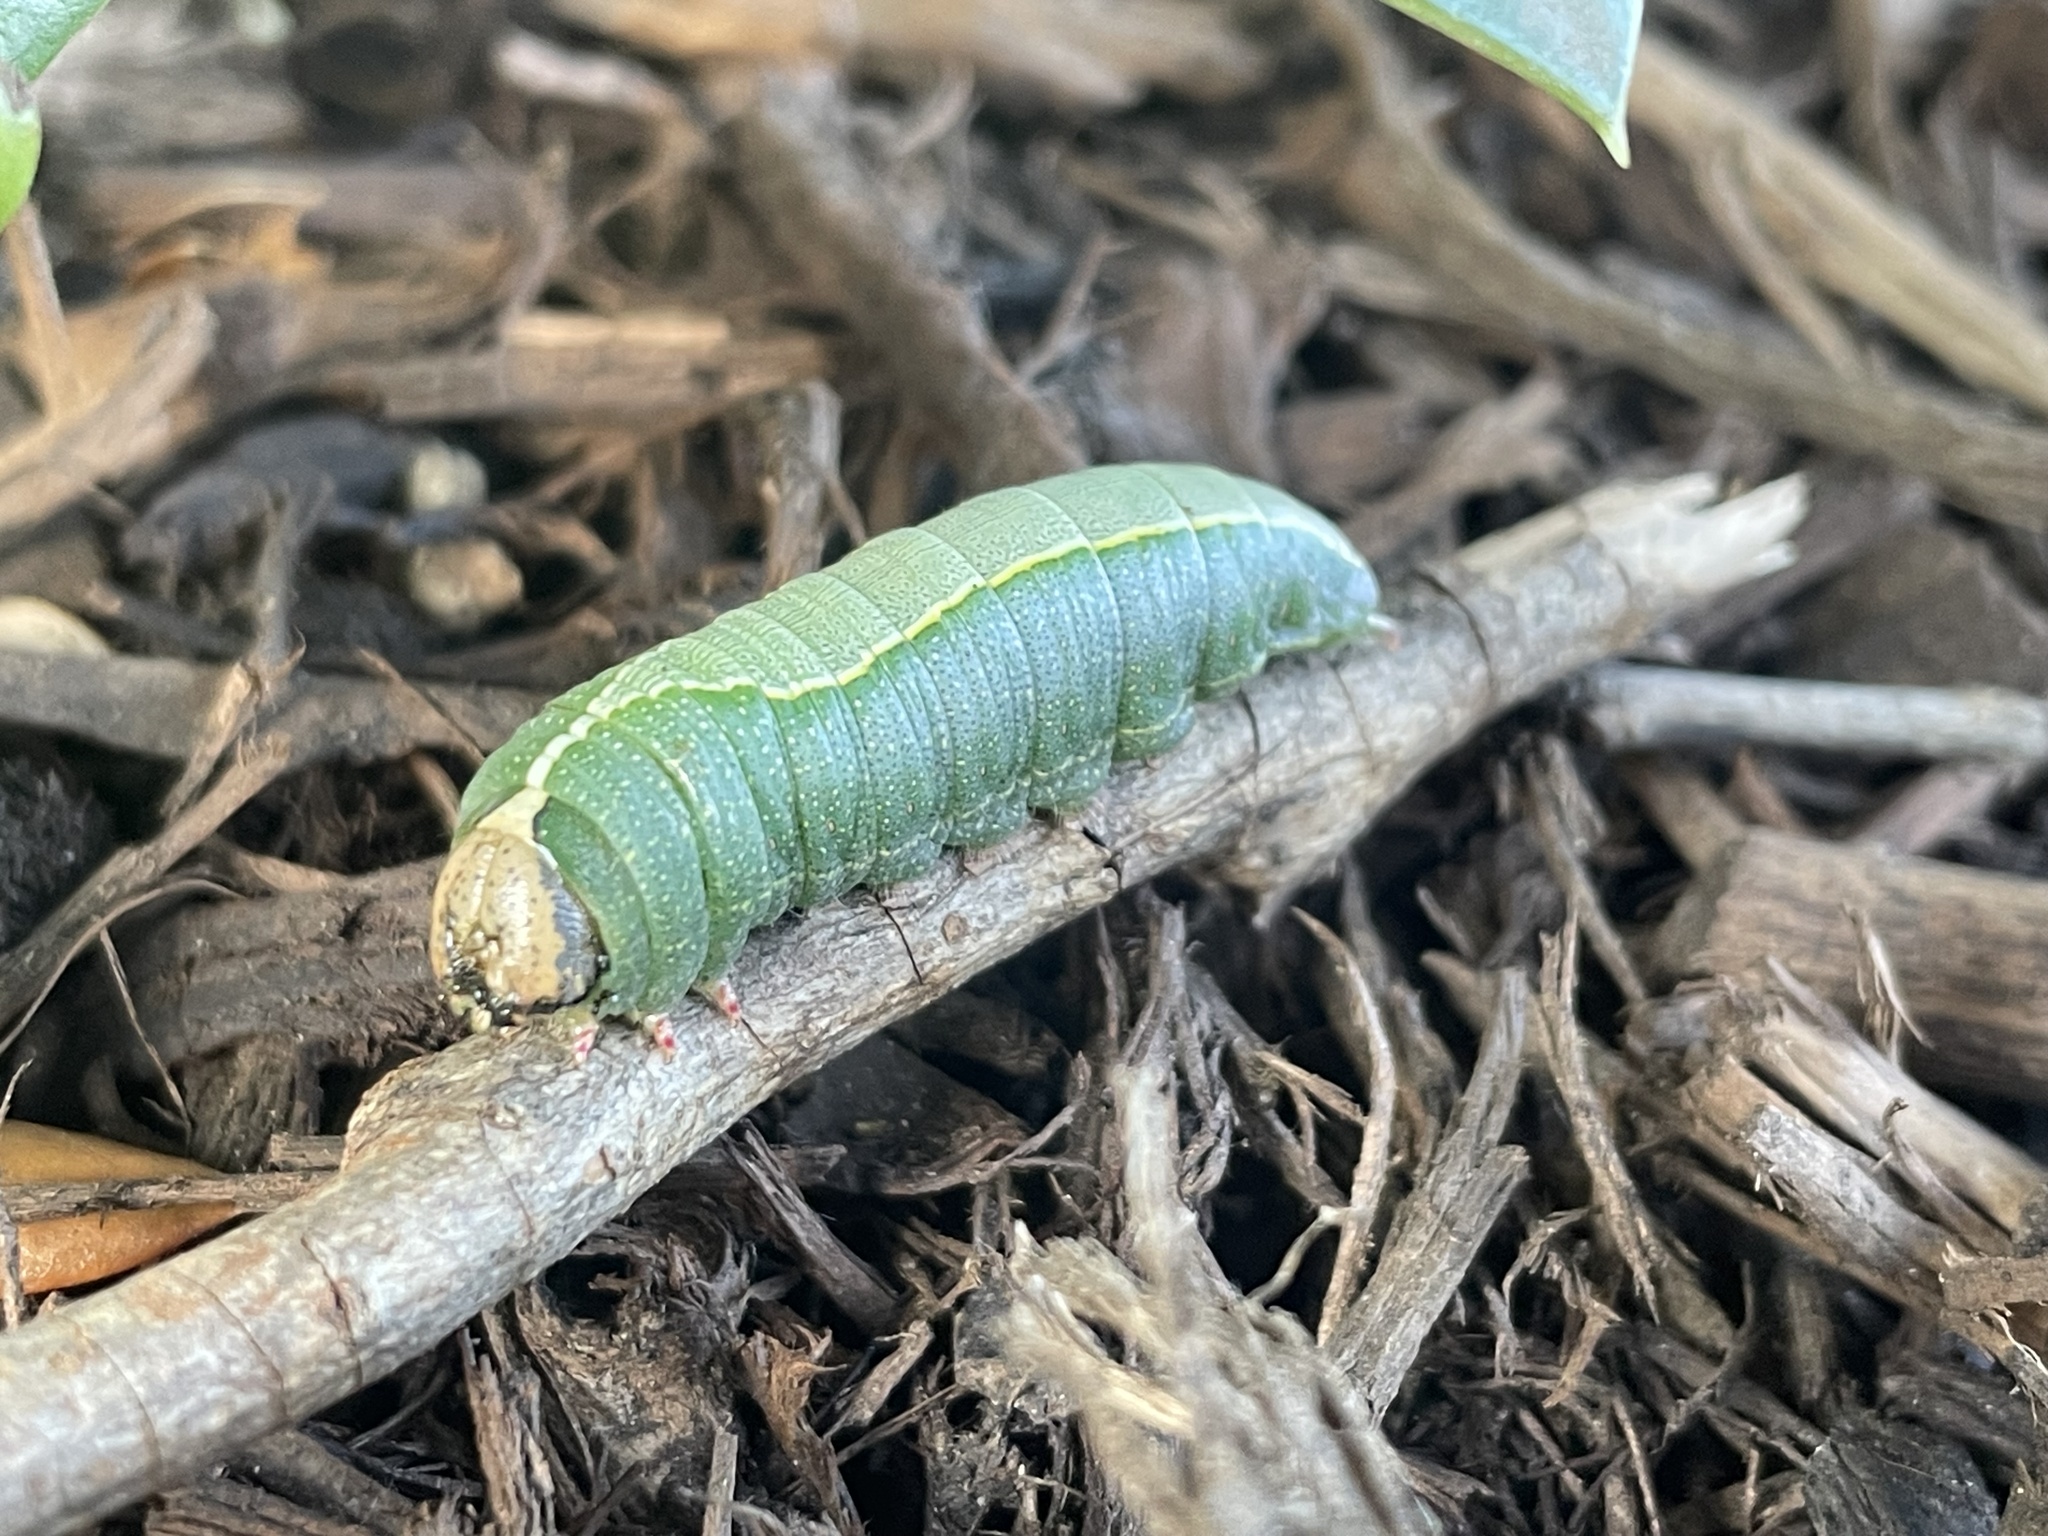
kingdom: Animalia
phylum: Arthropoda
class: Insecta
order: Lepidoptera
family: Notodontidae
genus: Heterocampa
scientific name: Heterocampa astartoides
